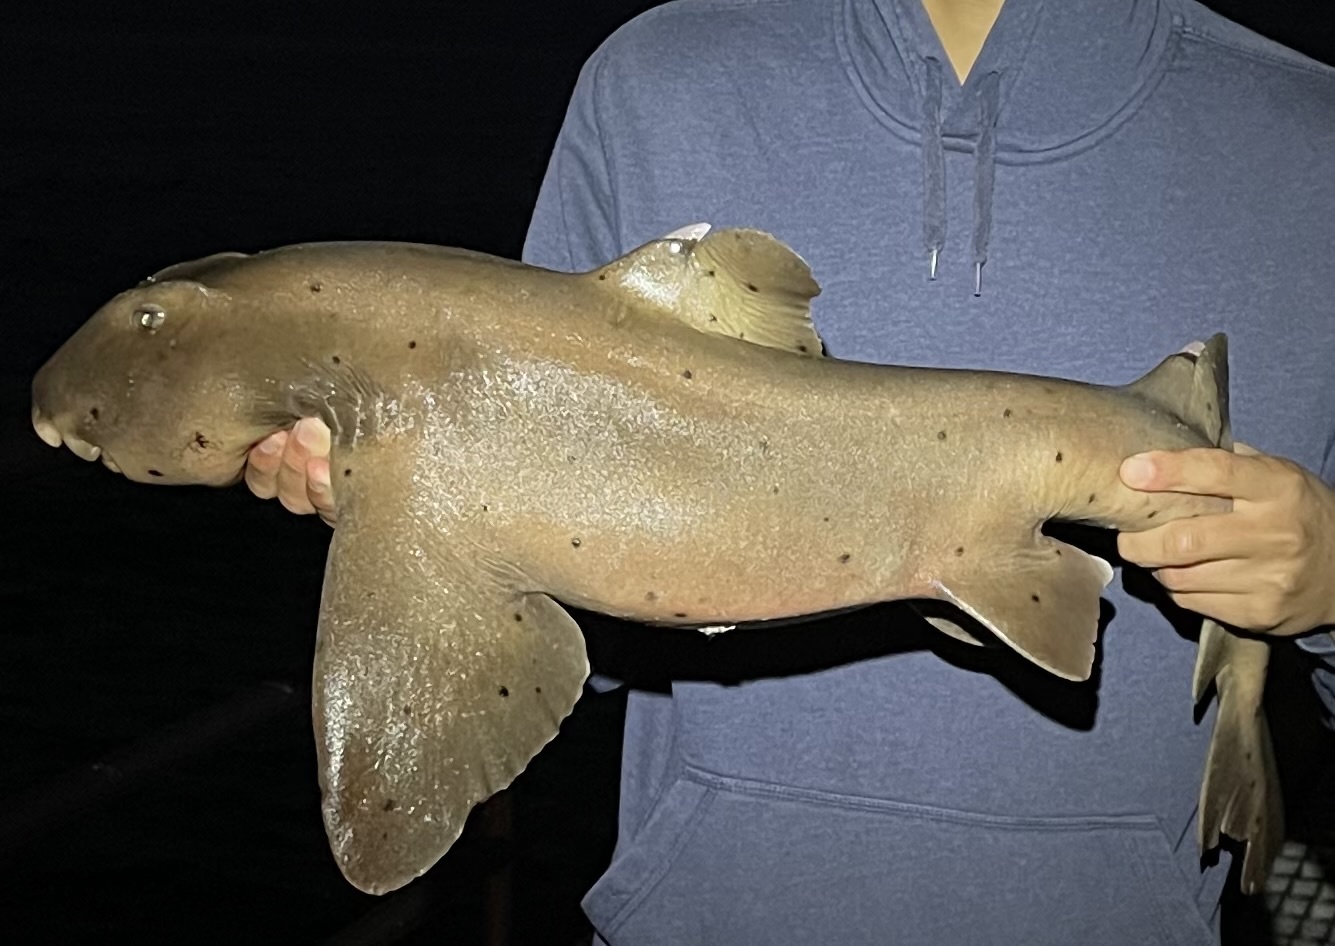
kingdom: Animalia
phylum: Chordata
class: Elasmobranchii
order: Heterodontiformes
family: Heterodontidae
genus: Heterodontus
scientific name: Heterodontus francisci
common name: Horn shark
